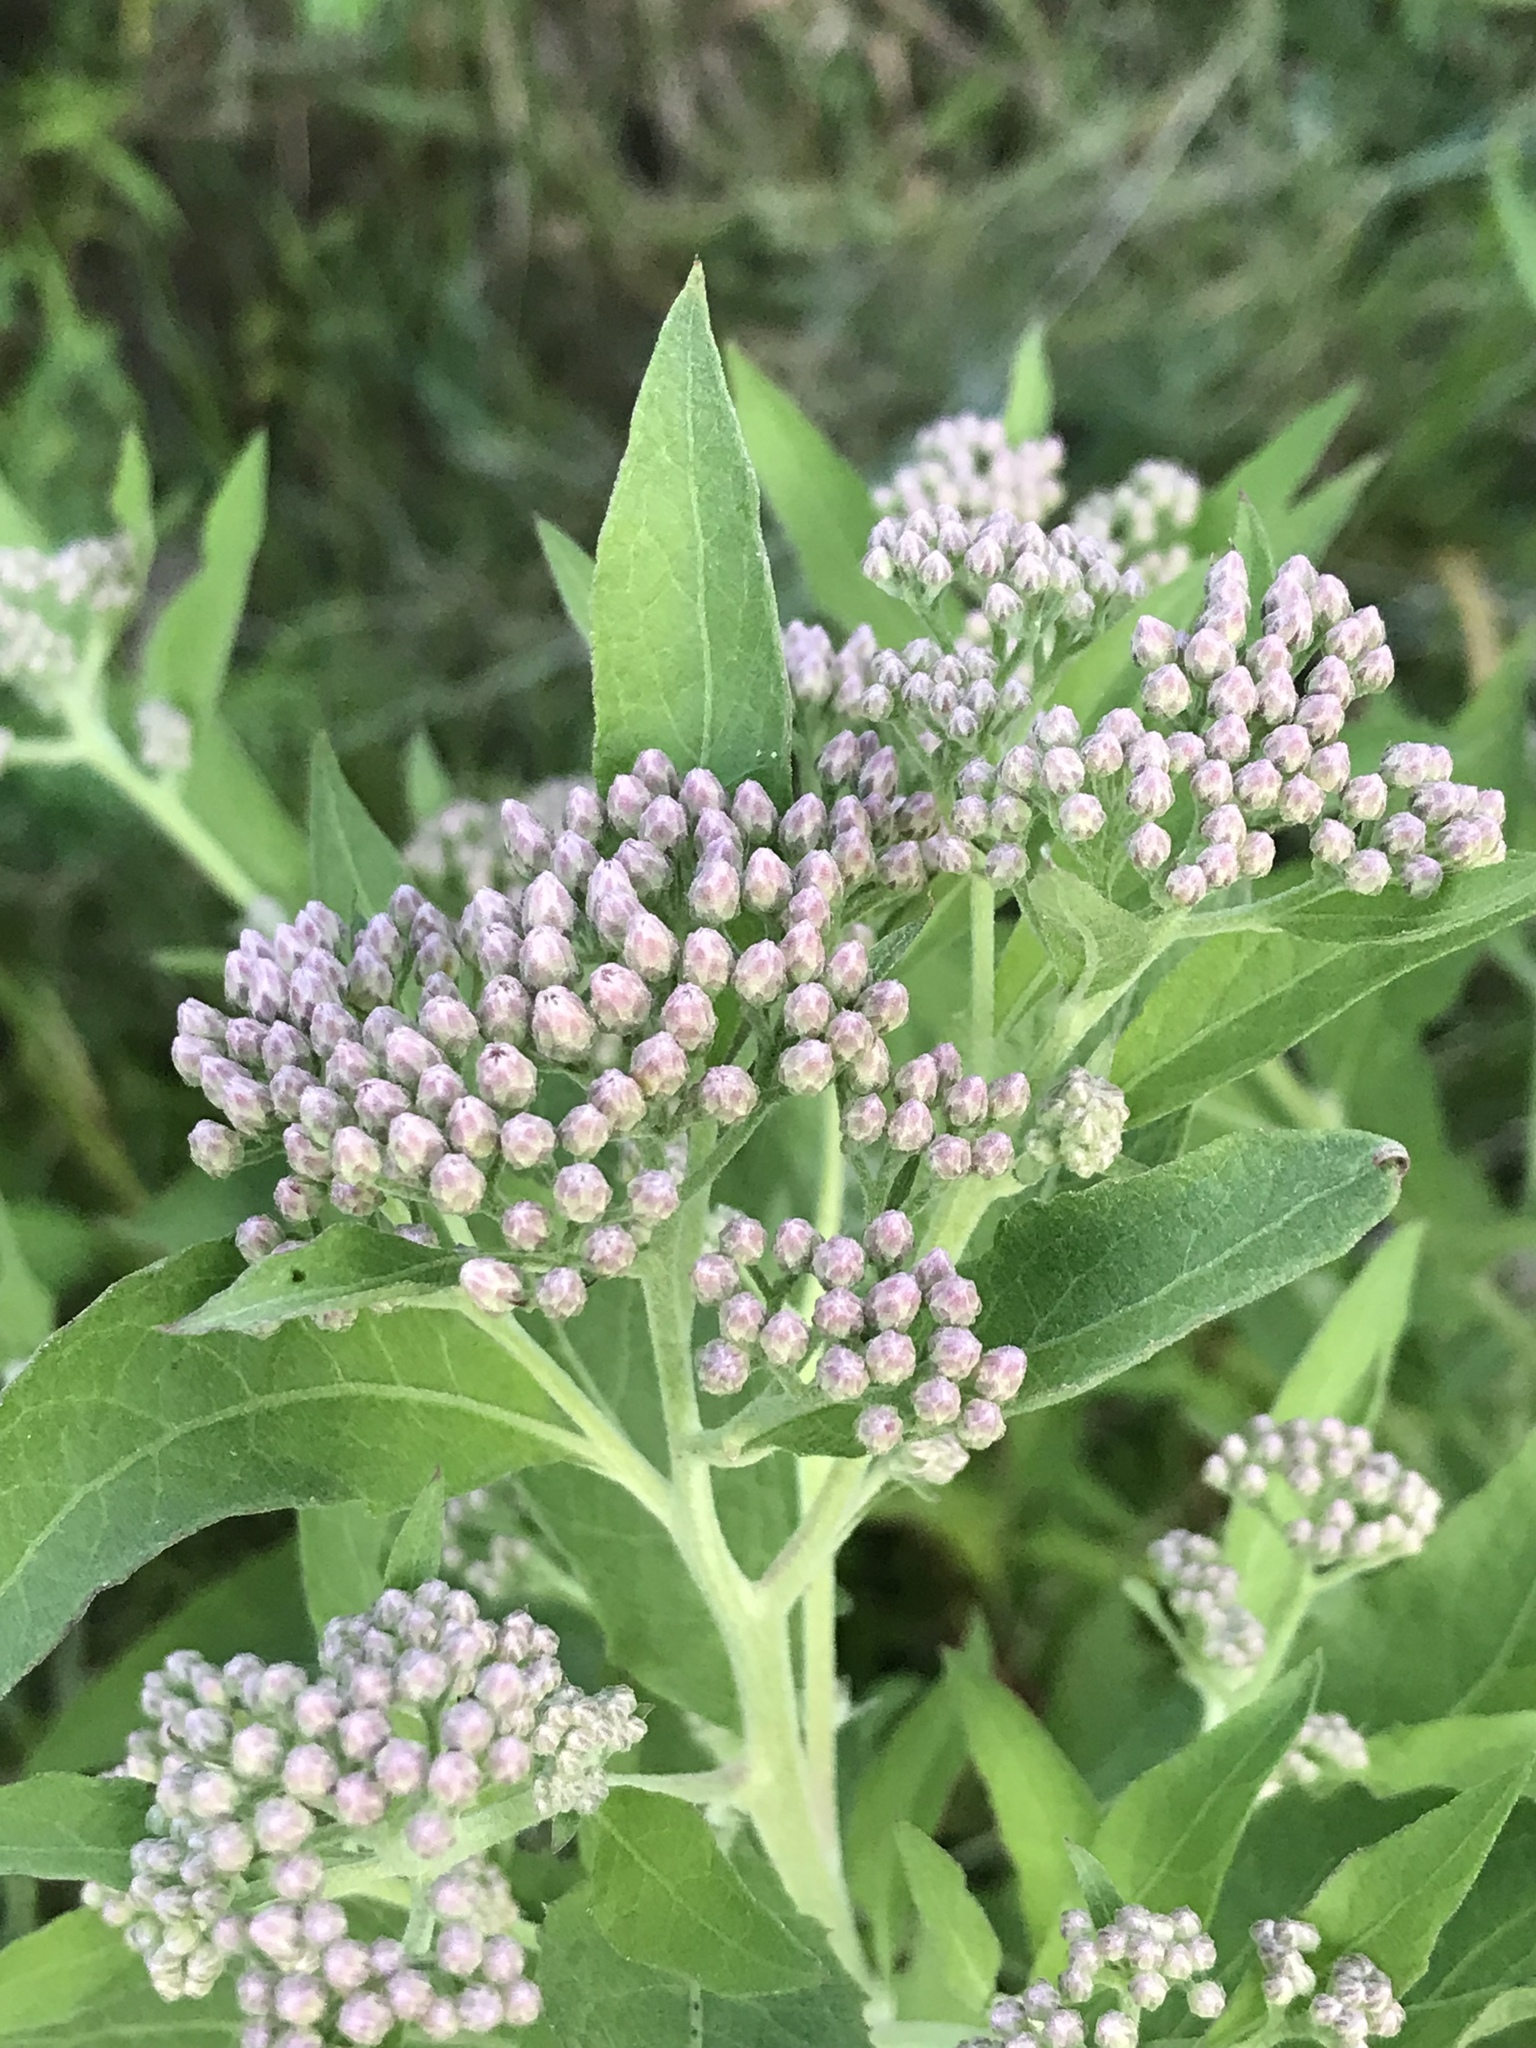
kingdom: Plantae
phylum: Tracheophyta
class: Magnoliopsida
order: Asterales
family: Asteraceae
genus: Pluchea
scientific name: Pluchea odorata
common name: Saltmarsh fleabane
